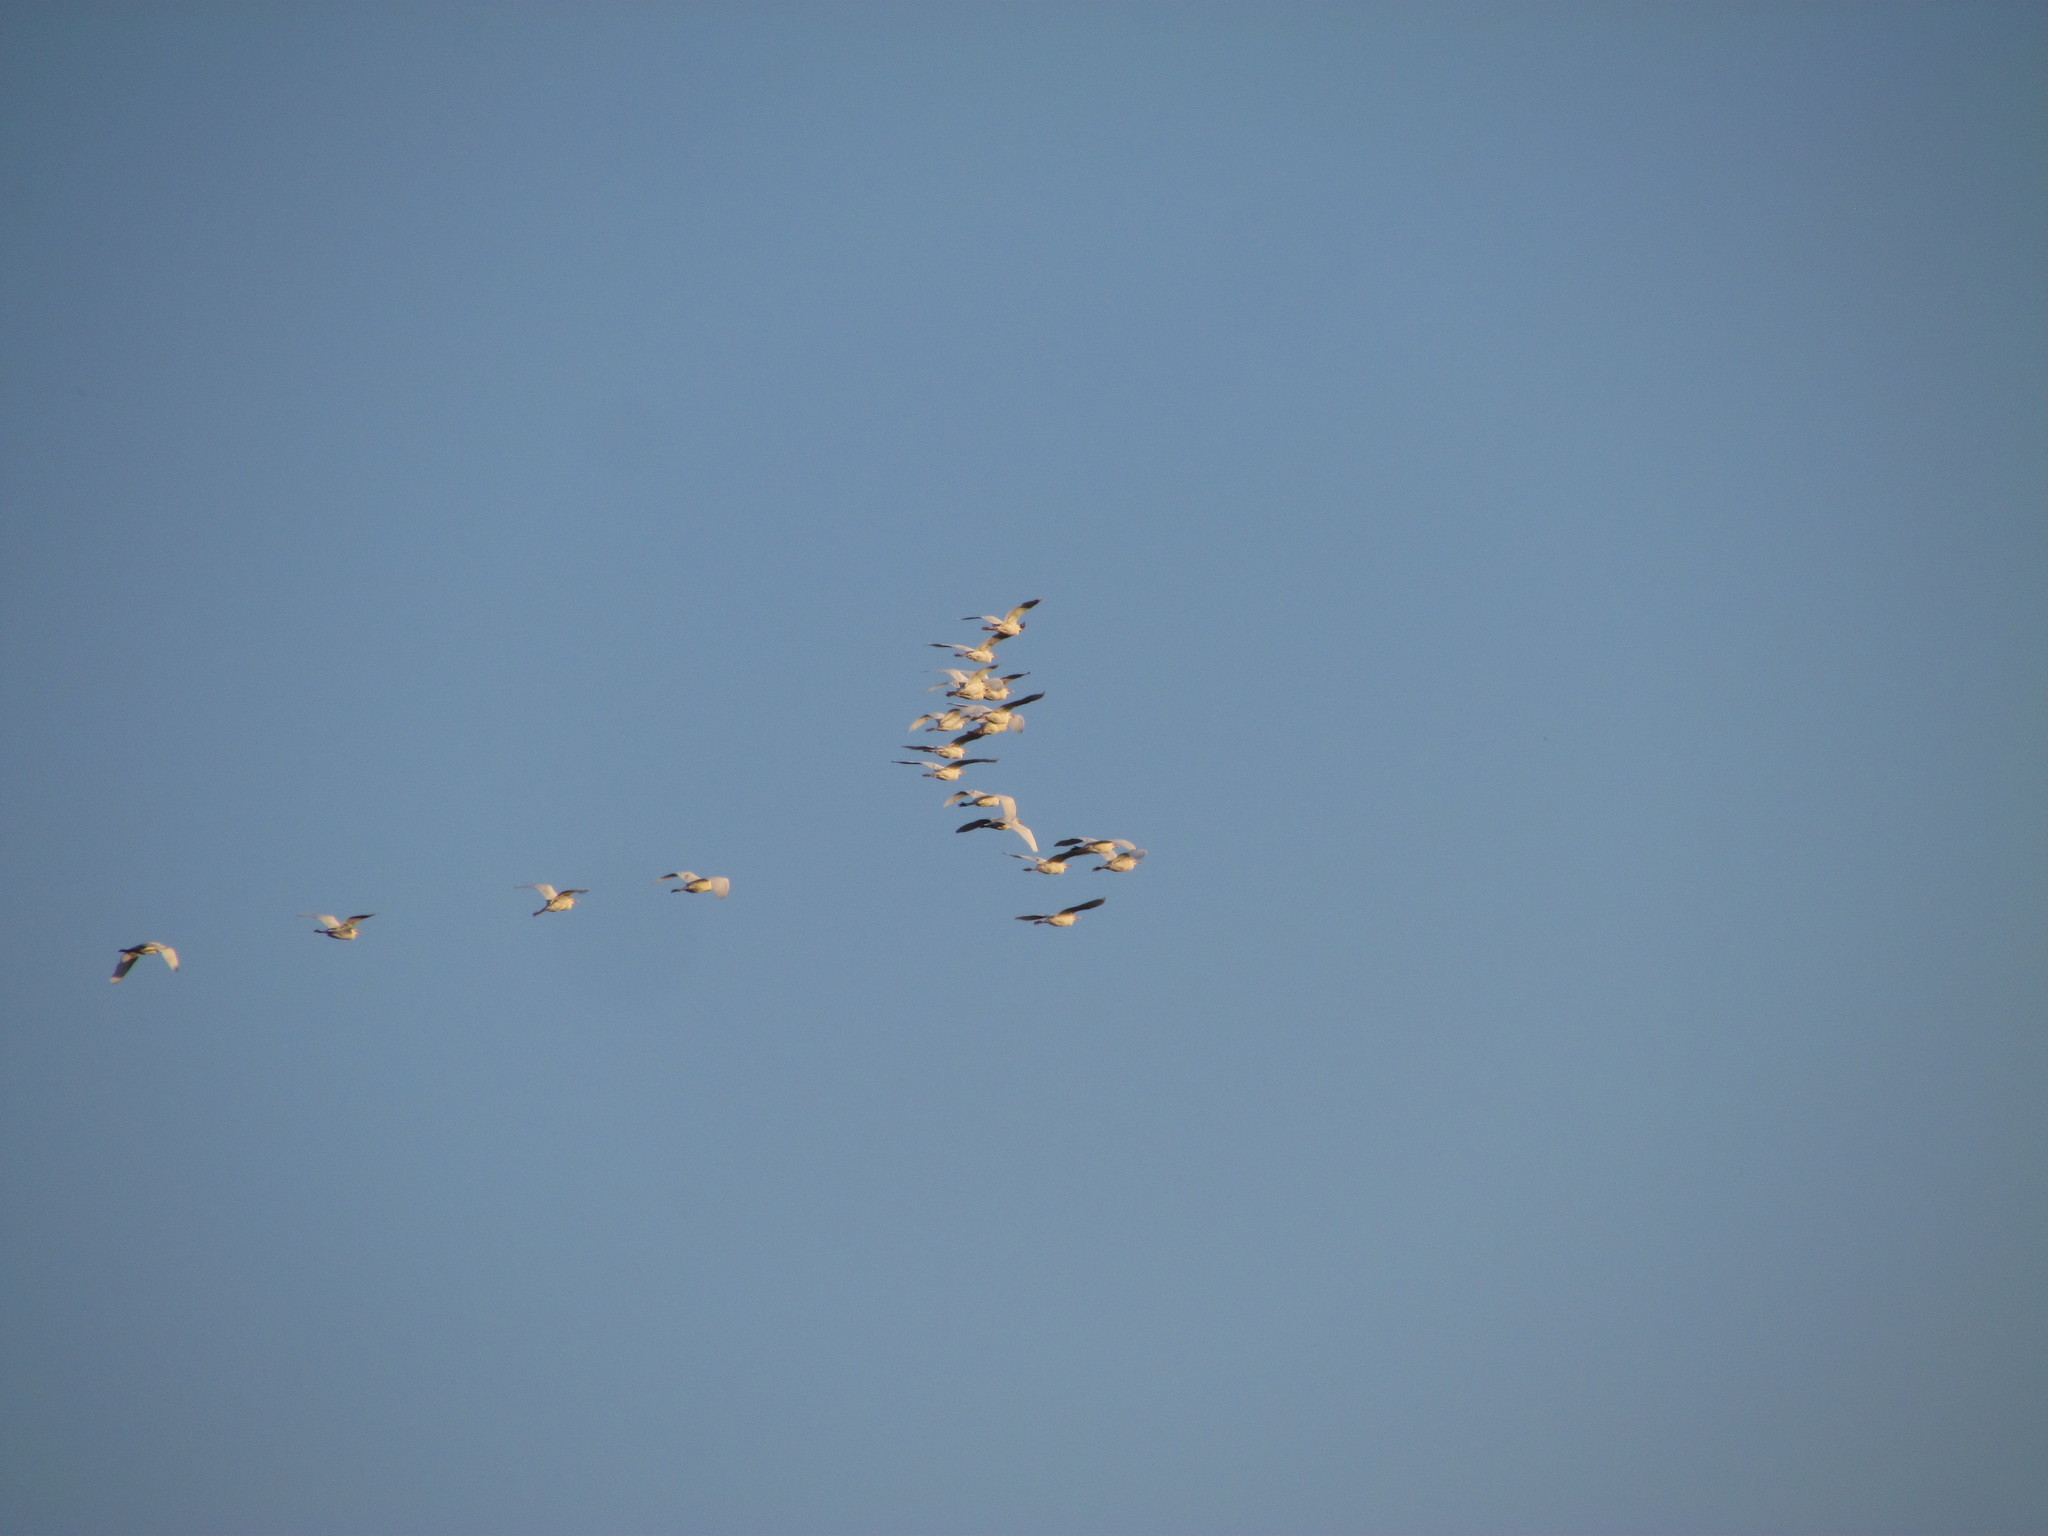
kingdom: Animalia
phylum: Chordata
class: Aves
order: Pelecaniformes
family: Ardeidae
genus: Bubulcus
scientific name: Bubulcus ibis
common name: Cattle egret
